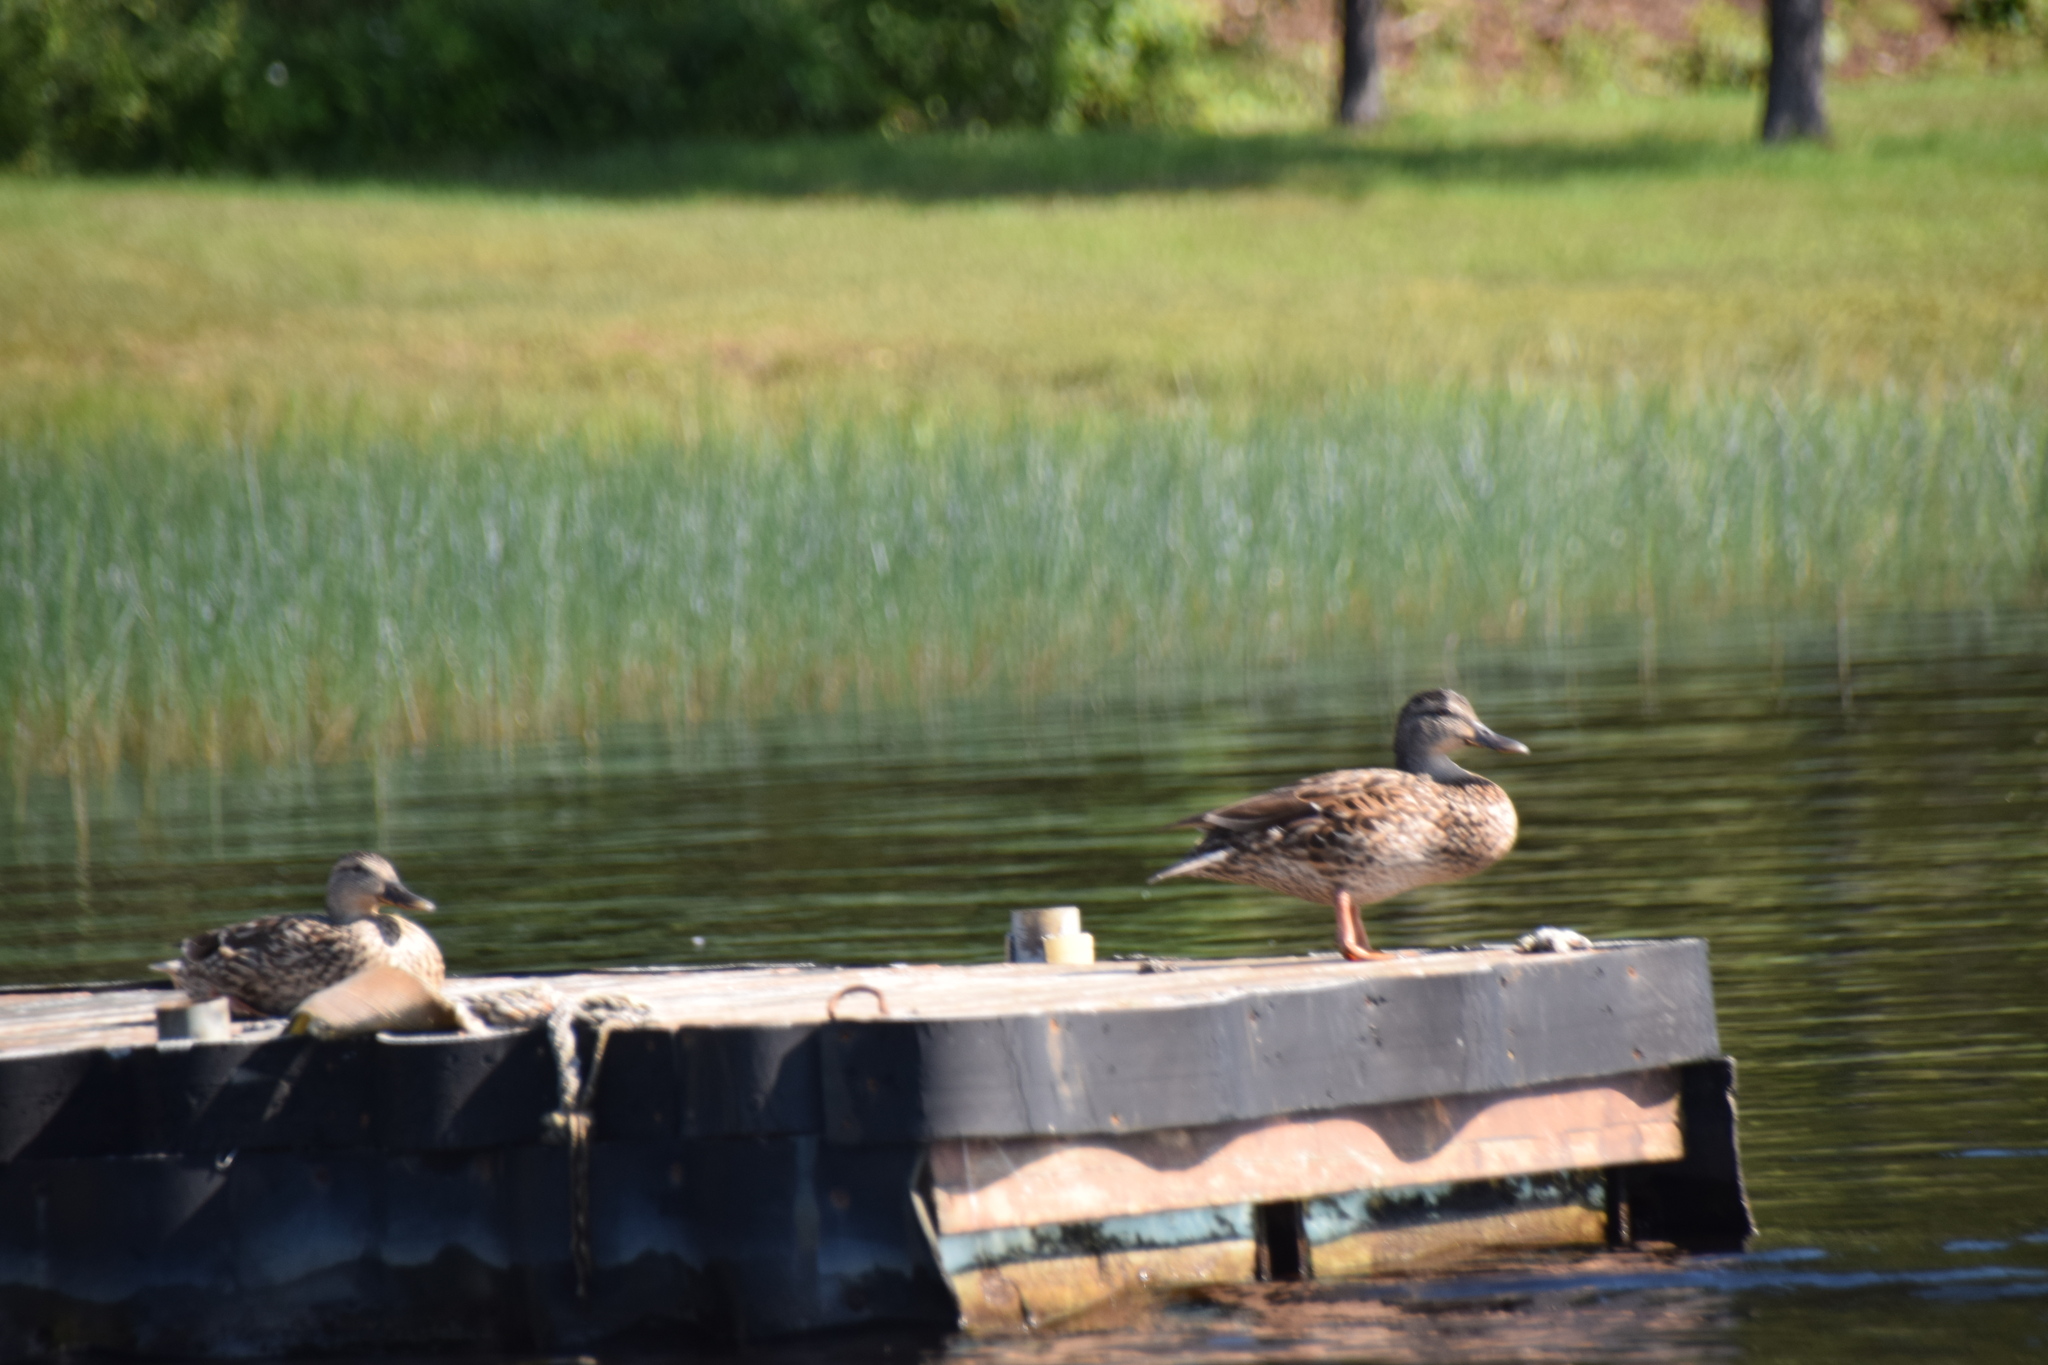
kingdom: Animalia
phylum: Chordata
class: Aves
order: Anseriformes
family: Anatidae
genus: Anas
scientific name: Anas platyrhynchos
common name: Mallard
